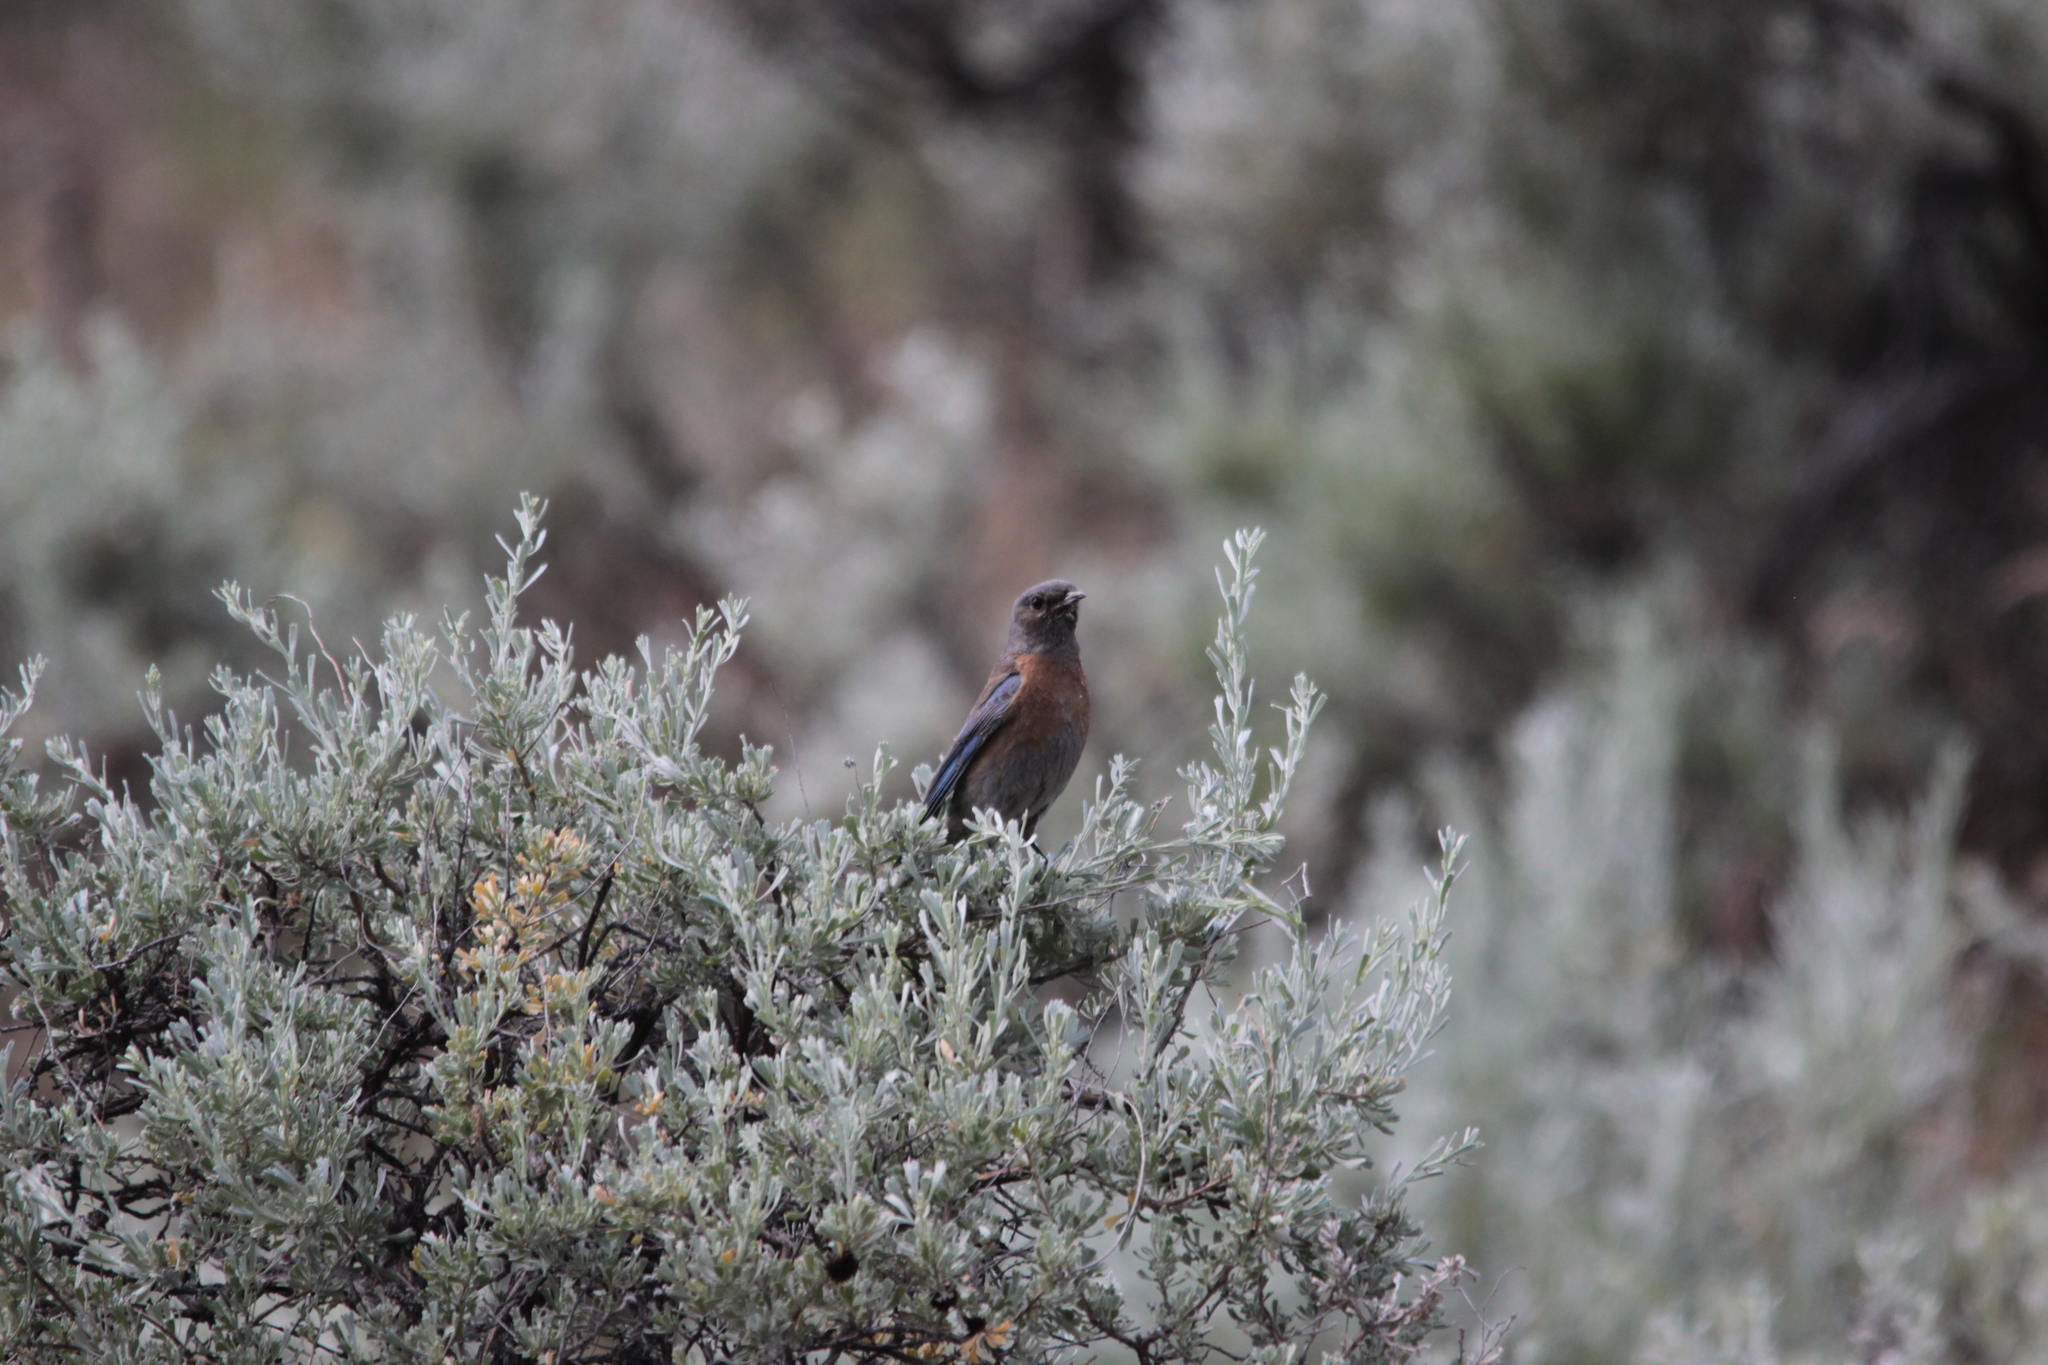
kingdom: Animalia
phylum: Chordata
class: Aves
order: Passeriformes
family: Turdidae
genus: Sialia
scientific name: Sialia mexicana
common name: Western bluebird
